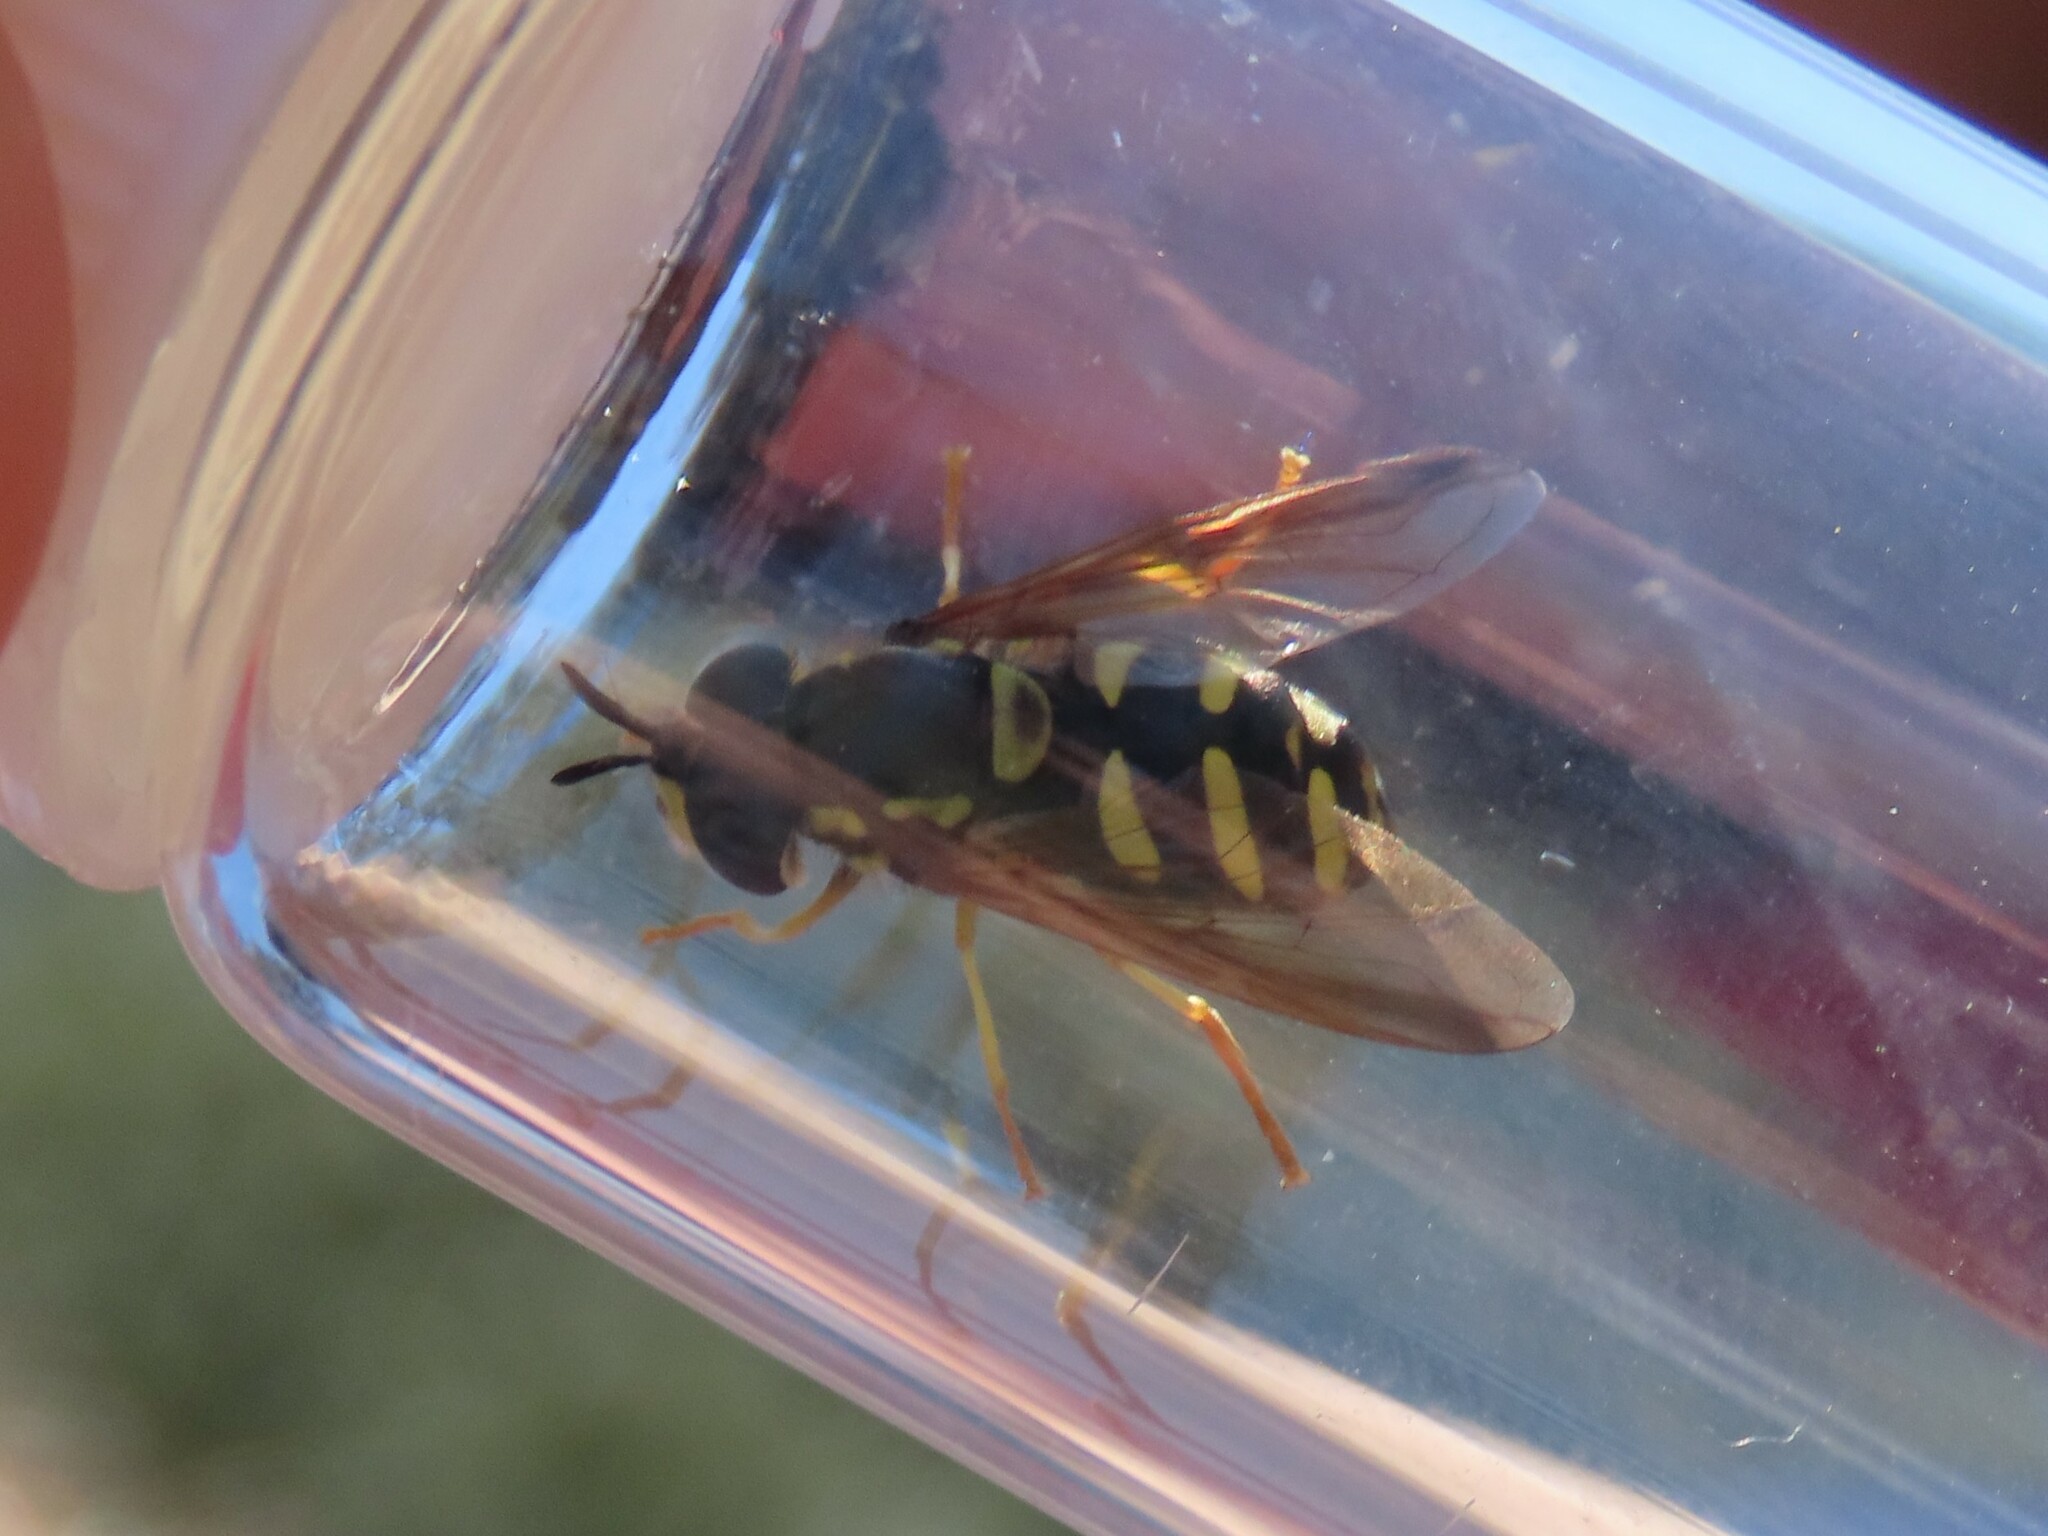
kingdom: Animalia
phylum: Arthropoda
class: Insecta
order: Diptera
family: Syrphidae
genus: Chrysotoxum
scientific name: Chrysotoxum intermedium
